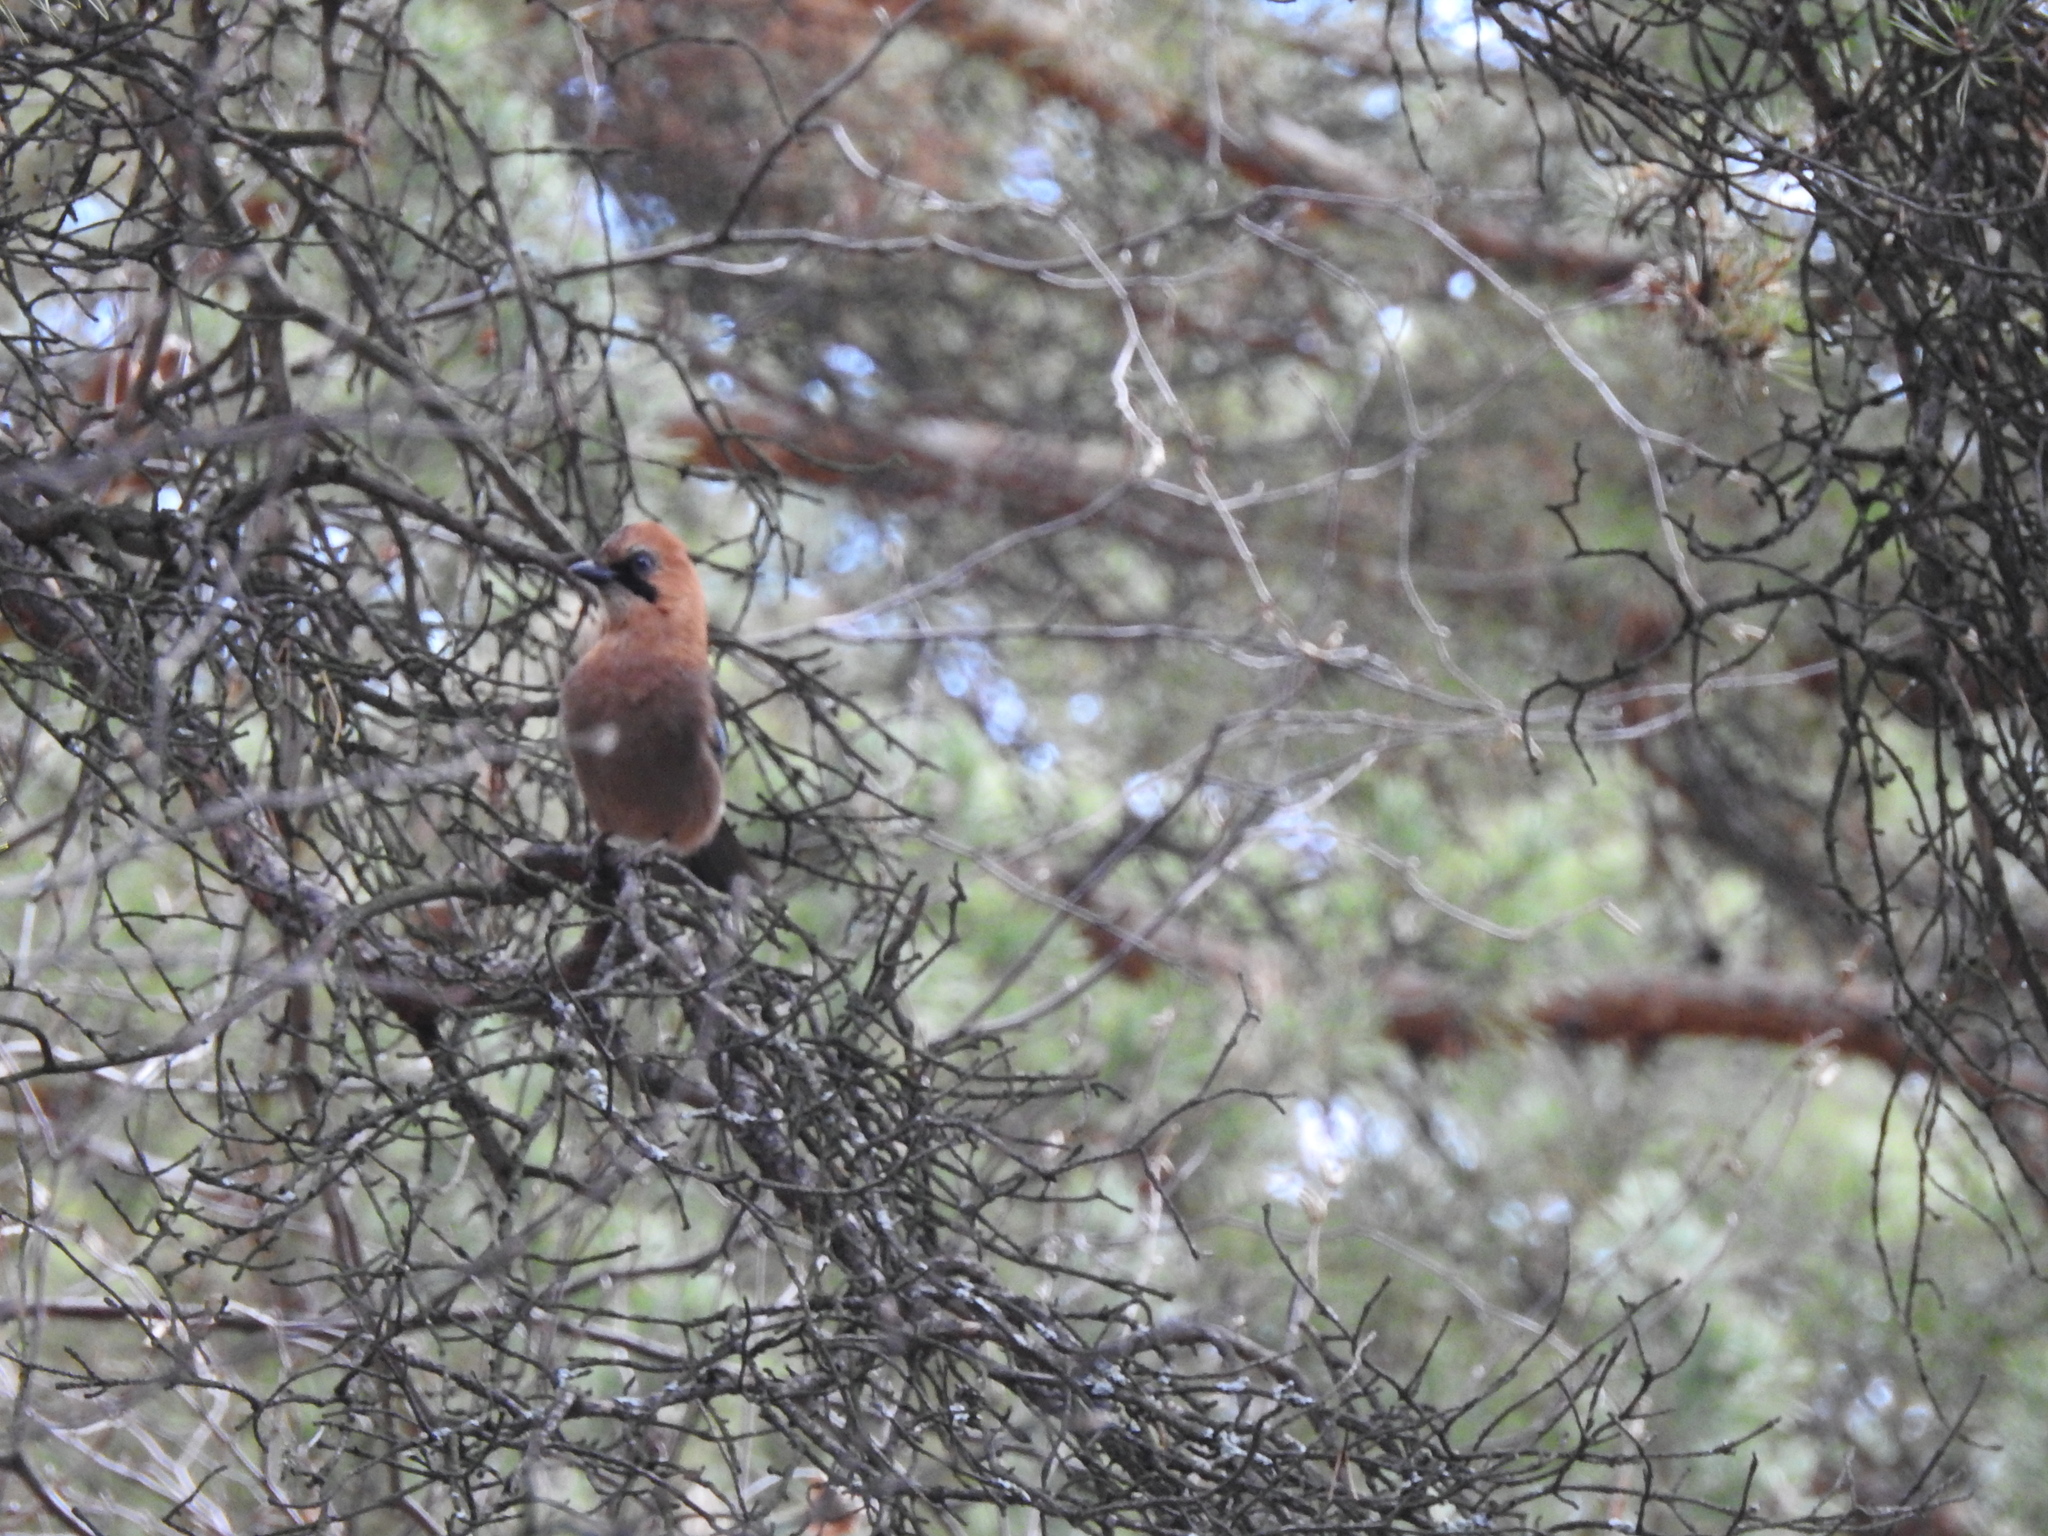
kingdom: Animalia
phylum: Chordata
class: Aves
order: Passeriformes
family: Corvidae
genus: Garrulus
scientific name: Garrulus glandarius
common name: Eurasian jay
